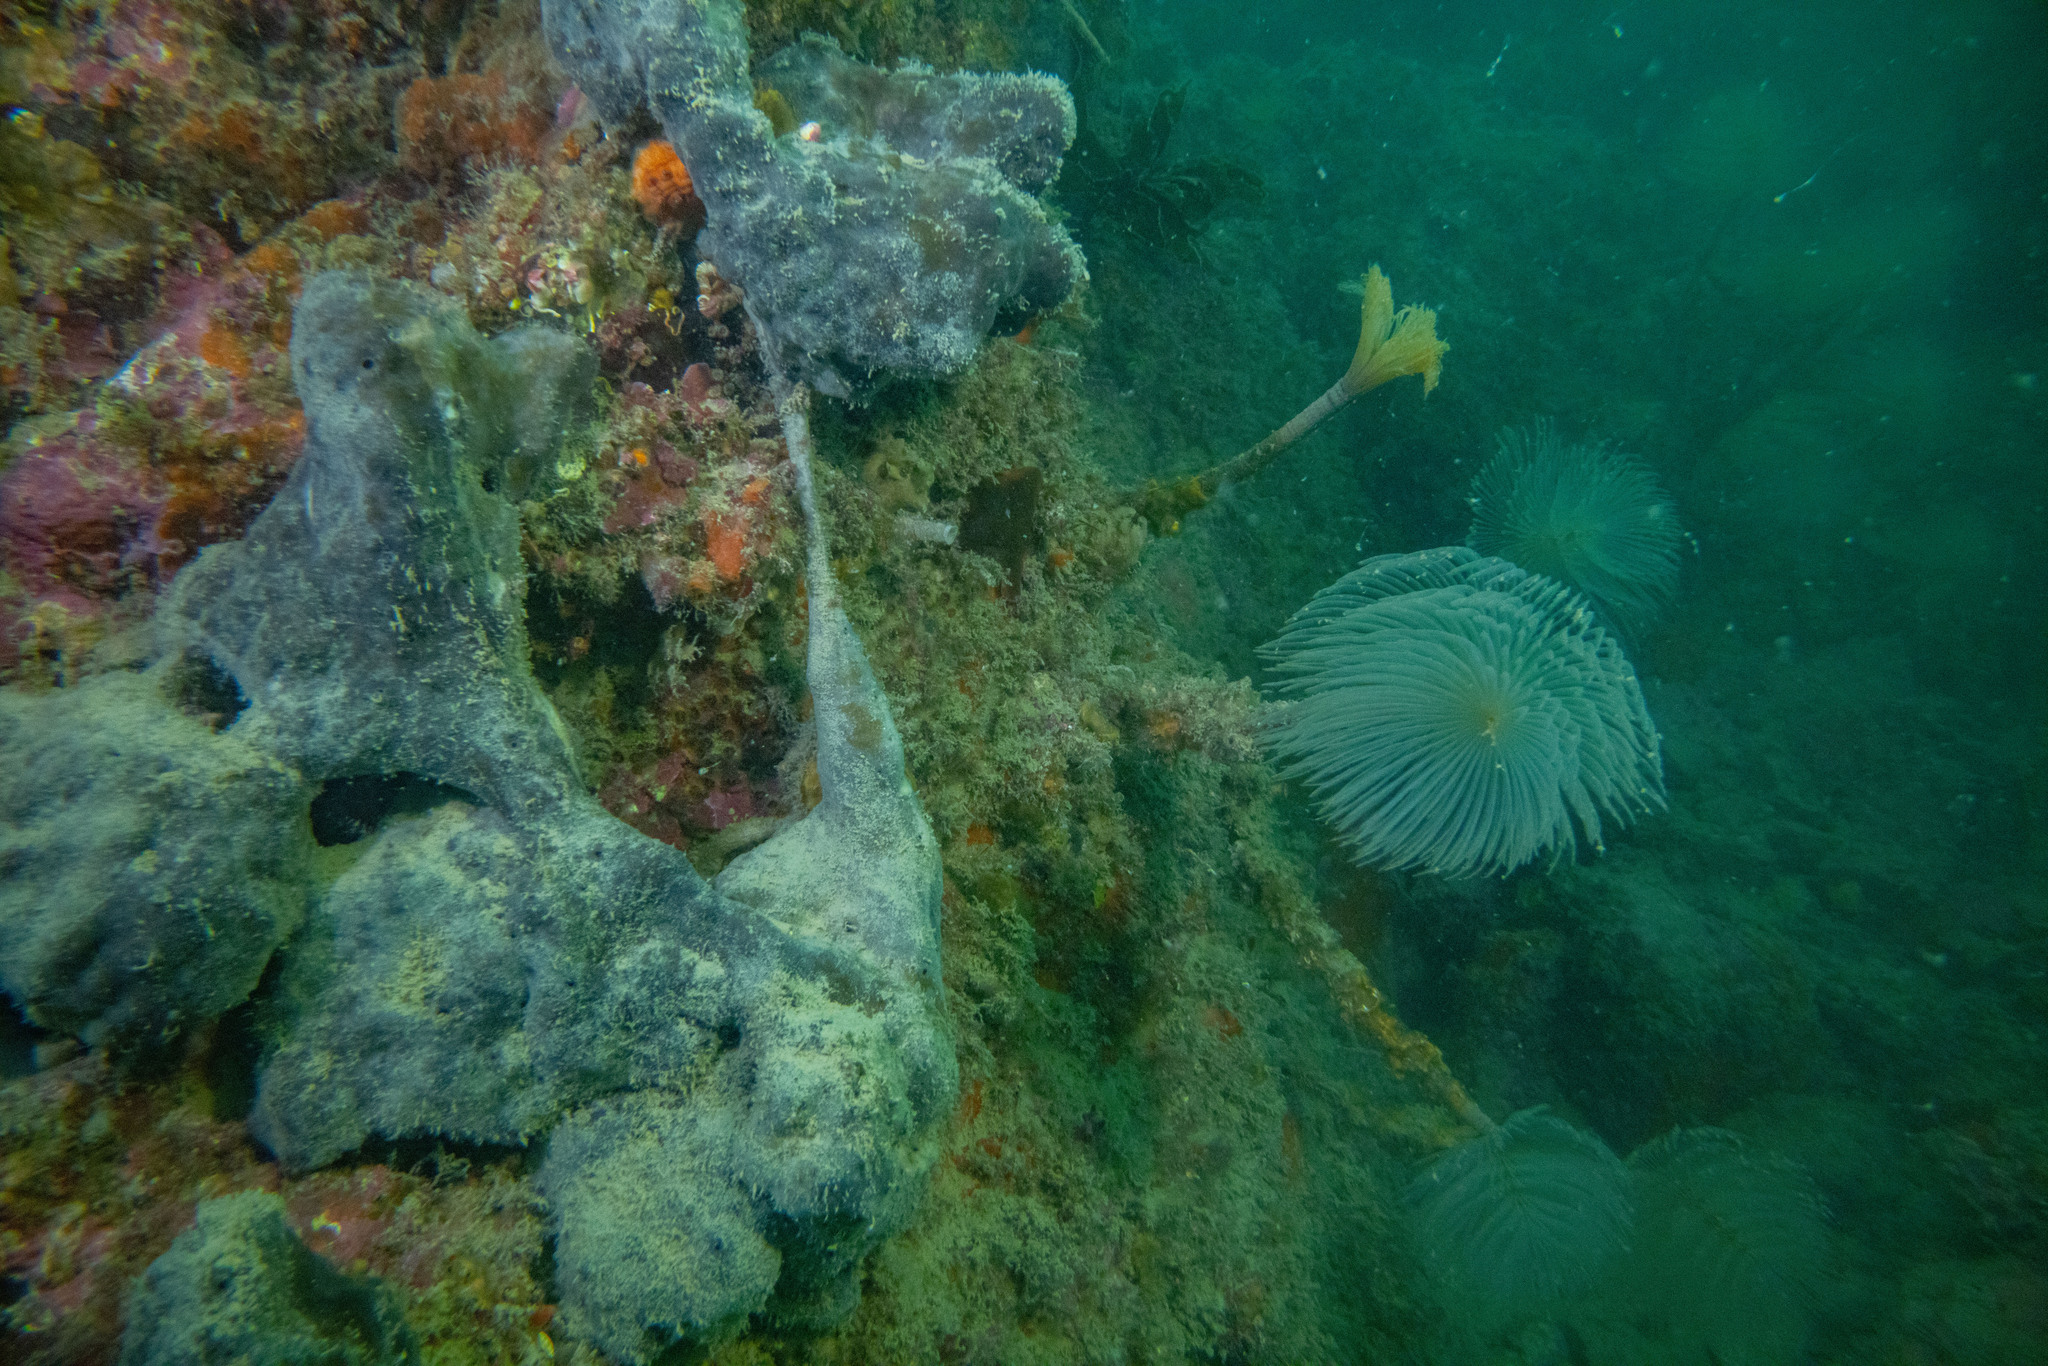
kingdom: Animalia
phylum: Porifera
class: Demospongiae
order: Tetractinellida
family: Ancorinidae
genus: Ecionemia
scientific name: Ecionemia alata
